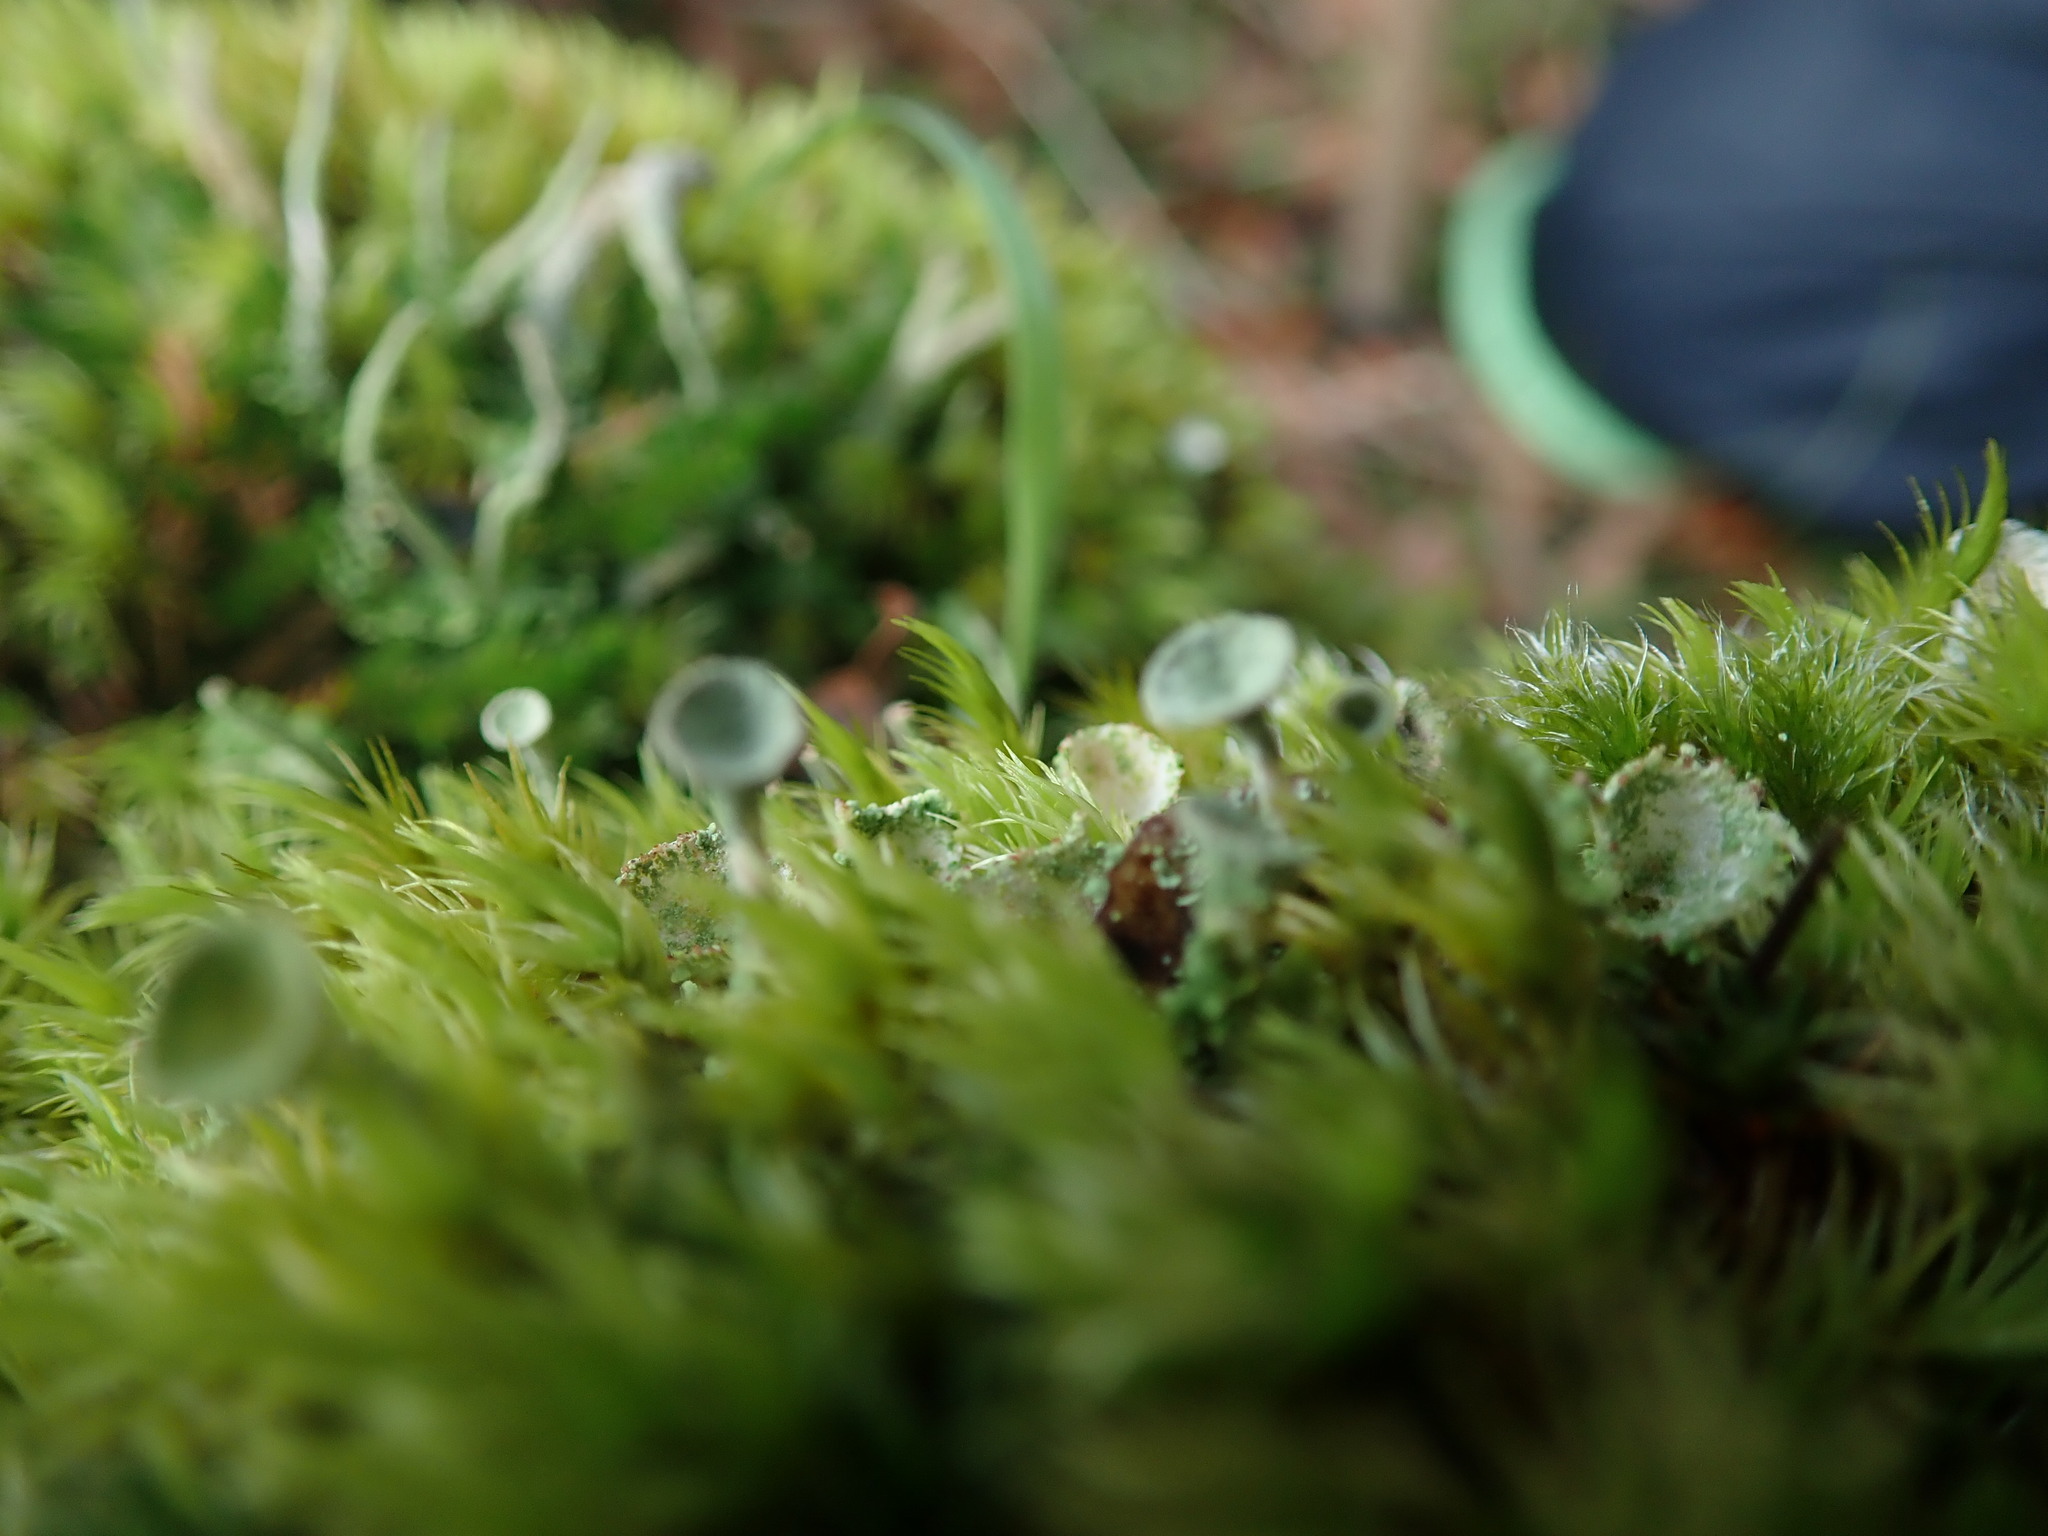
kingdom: Fungi
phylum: Ascomycota
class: Lecanoromycetes
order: Lecanorales
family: Cladoniaceae
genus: Cladonia
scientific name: Cladonia fimbriata
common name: Powdered trumpet lichen
